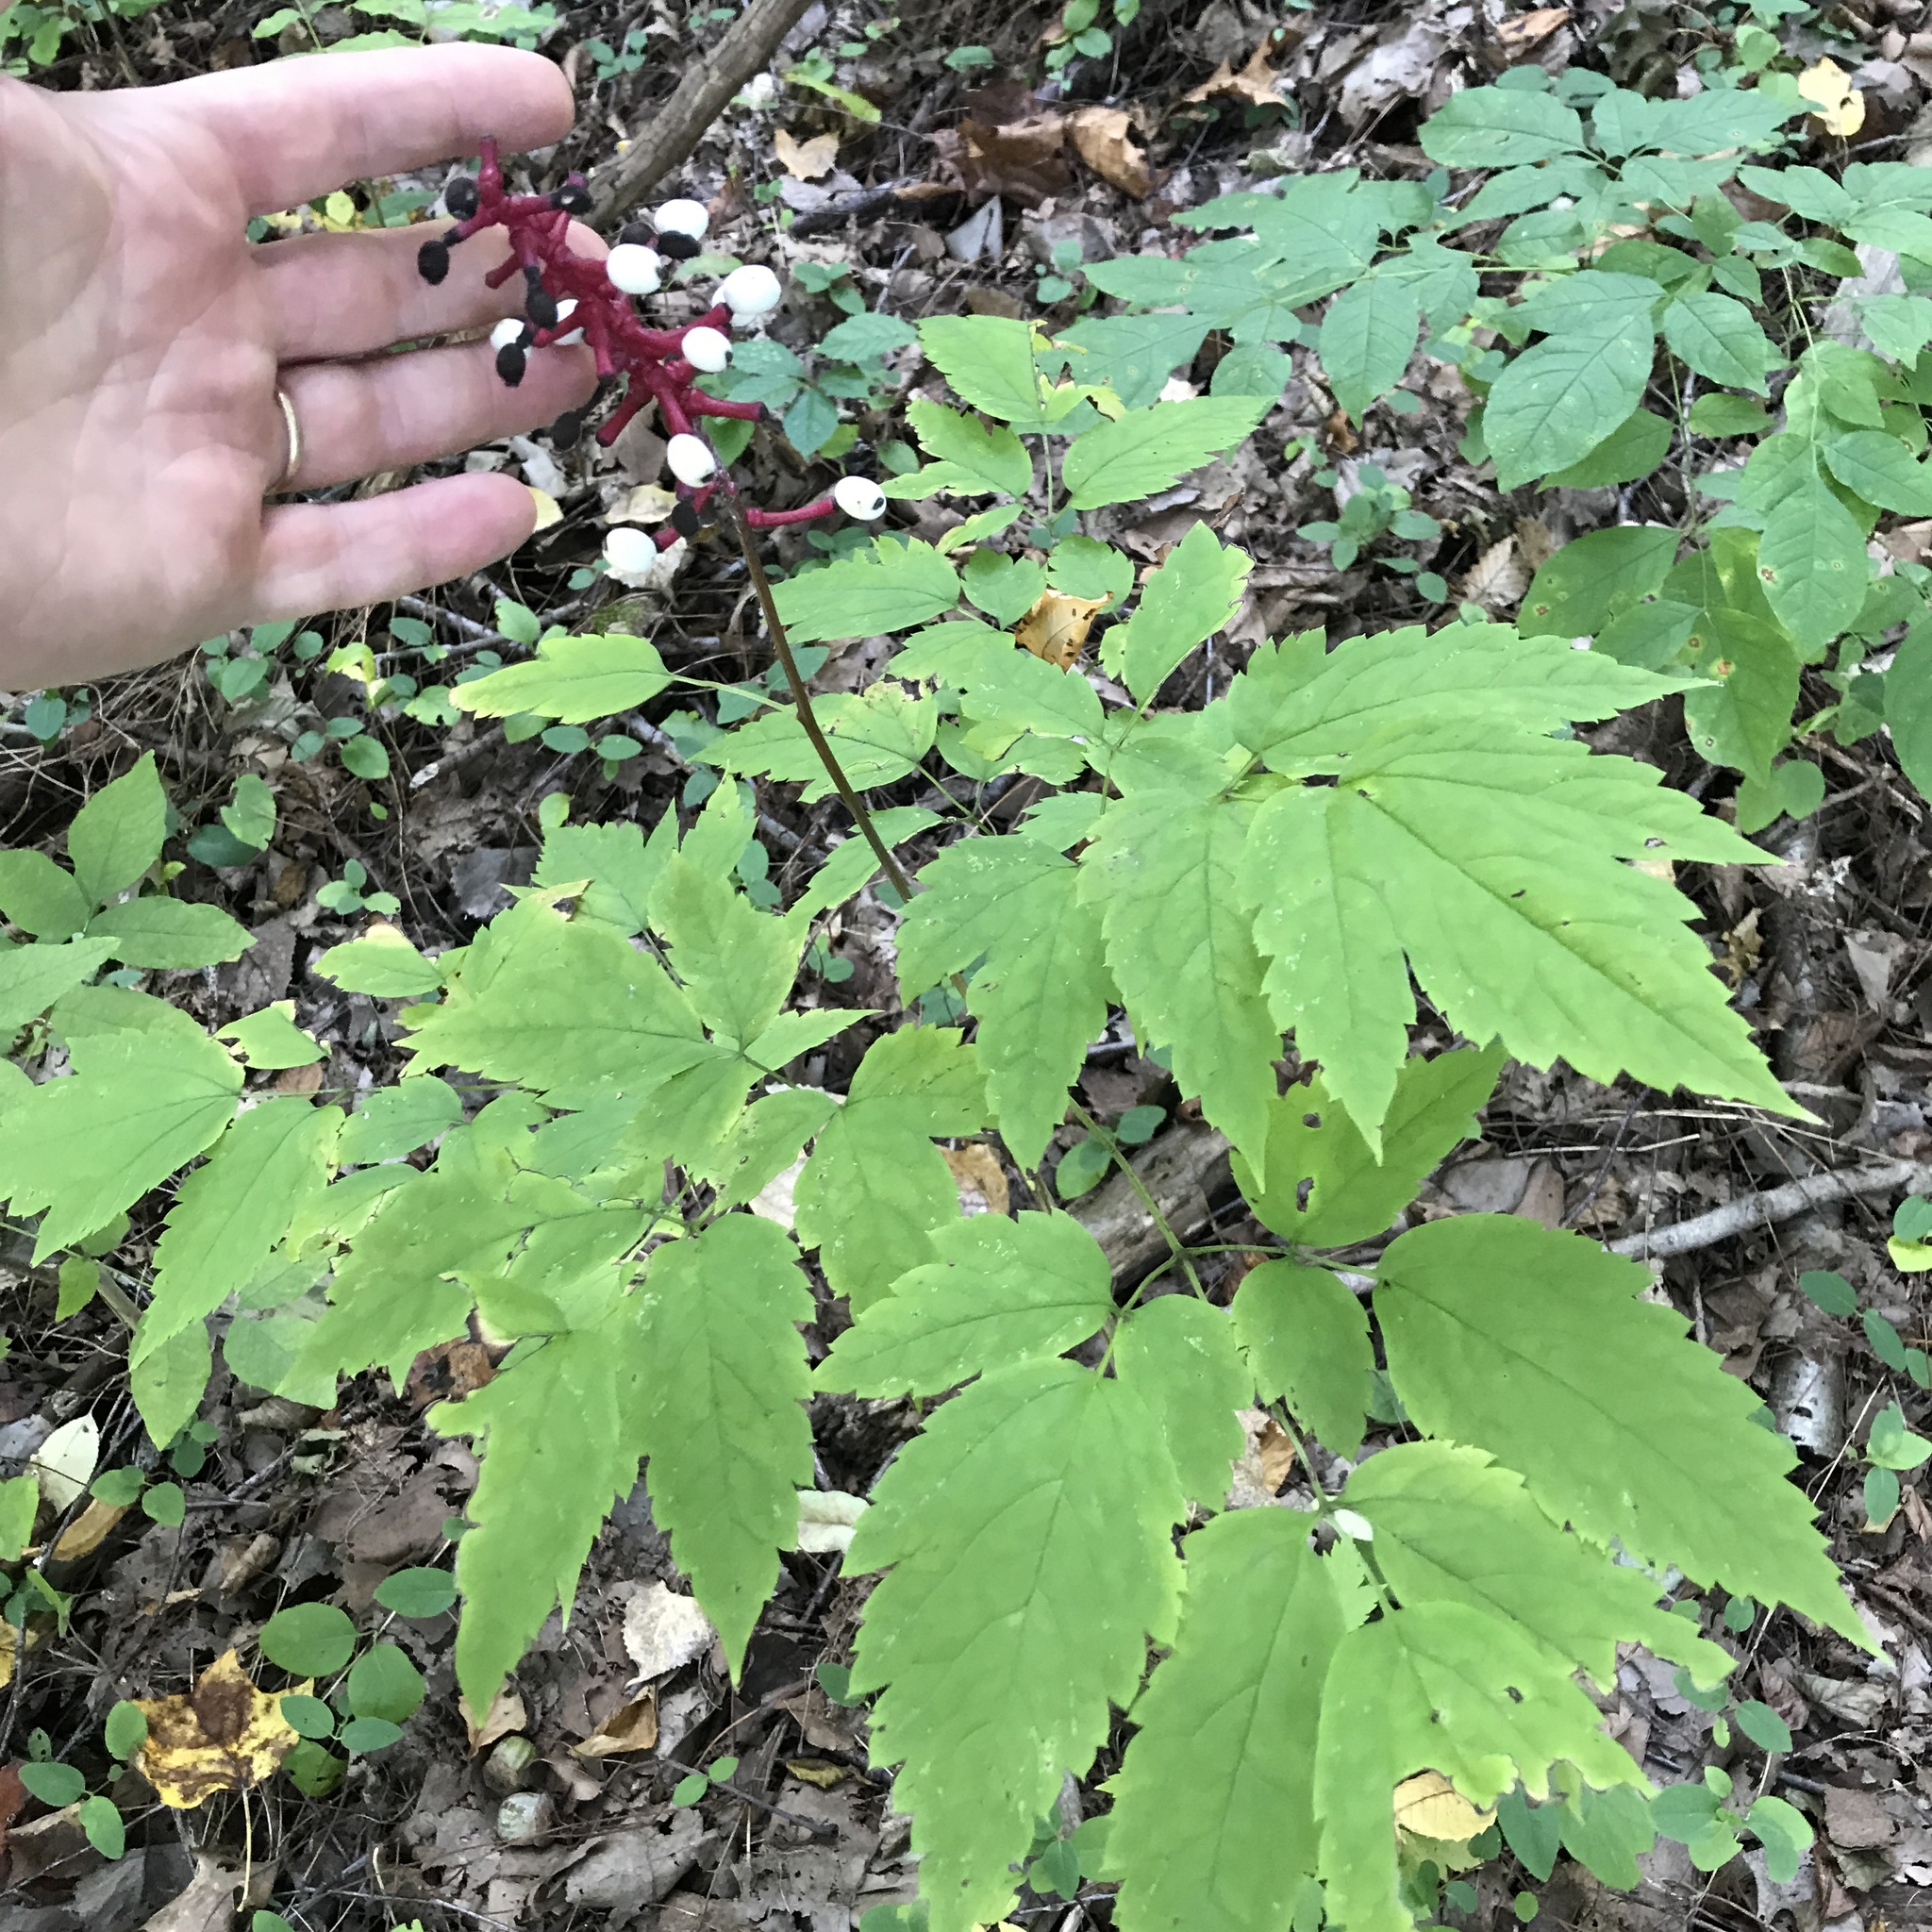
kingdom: Plantae
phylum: Tracheophyta
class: Magnoliopsida
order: Ranunculales
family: Ranunculaceae
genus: Actaea
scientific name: Actaea pachypoda
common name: Doll's-eyes
